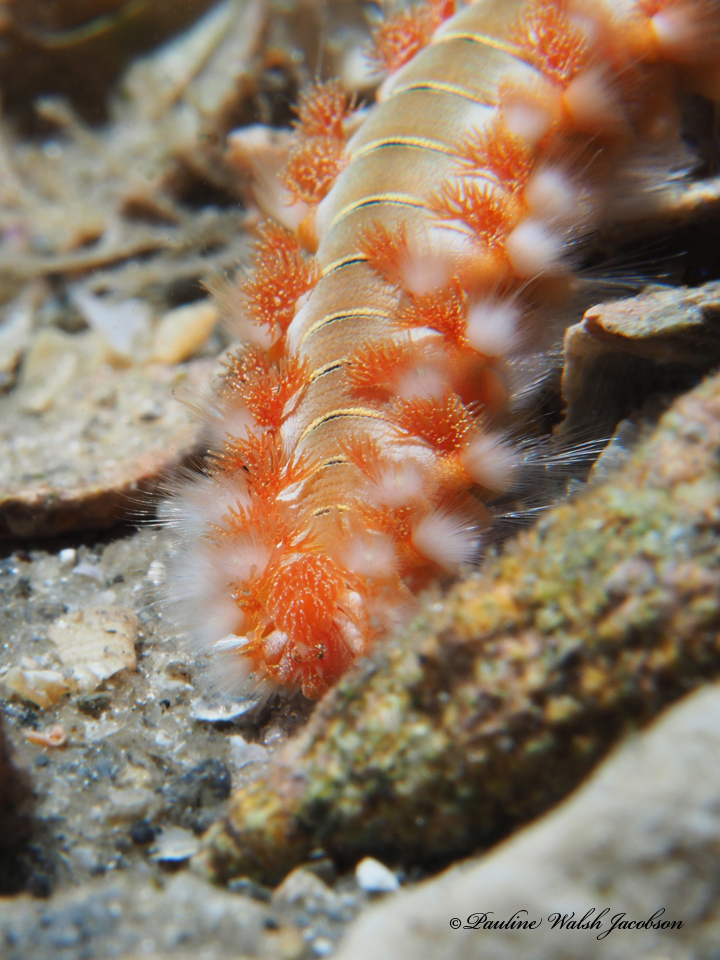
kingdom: Animalia
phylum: Annelida
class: Polychaeta
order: Amphinomida
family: Amphinomidae
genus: Hermodice
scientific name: Hermodice carunculata
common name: Bearded fireworm
